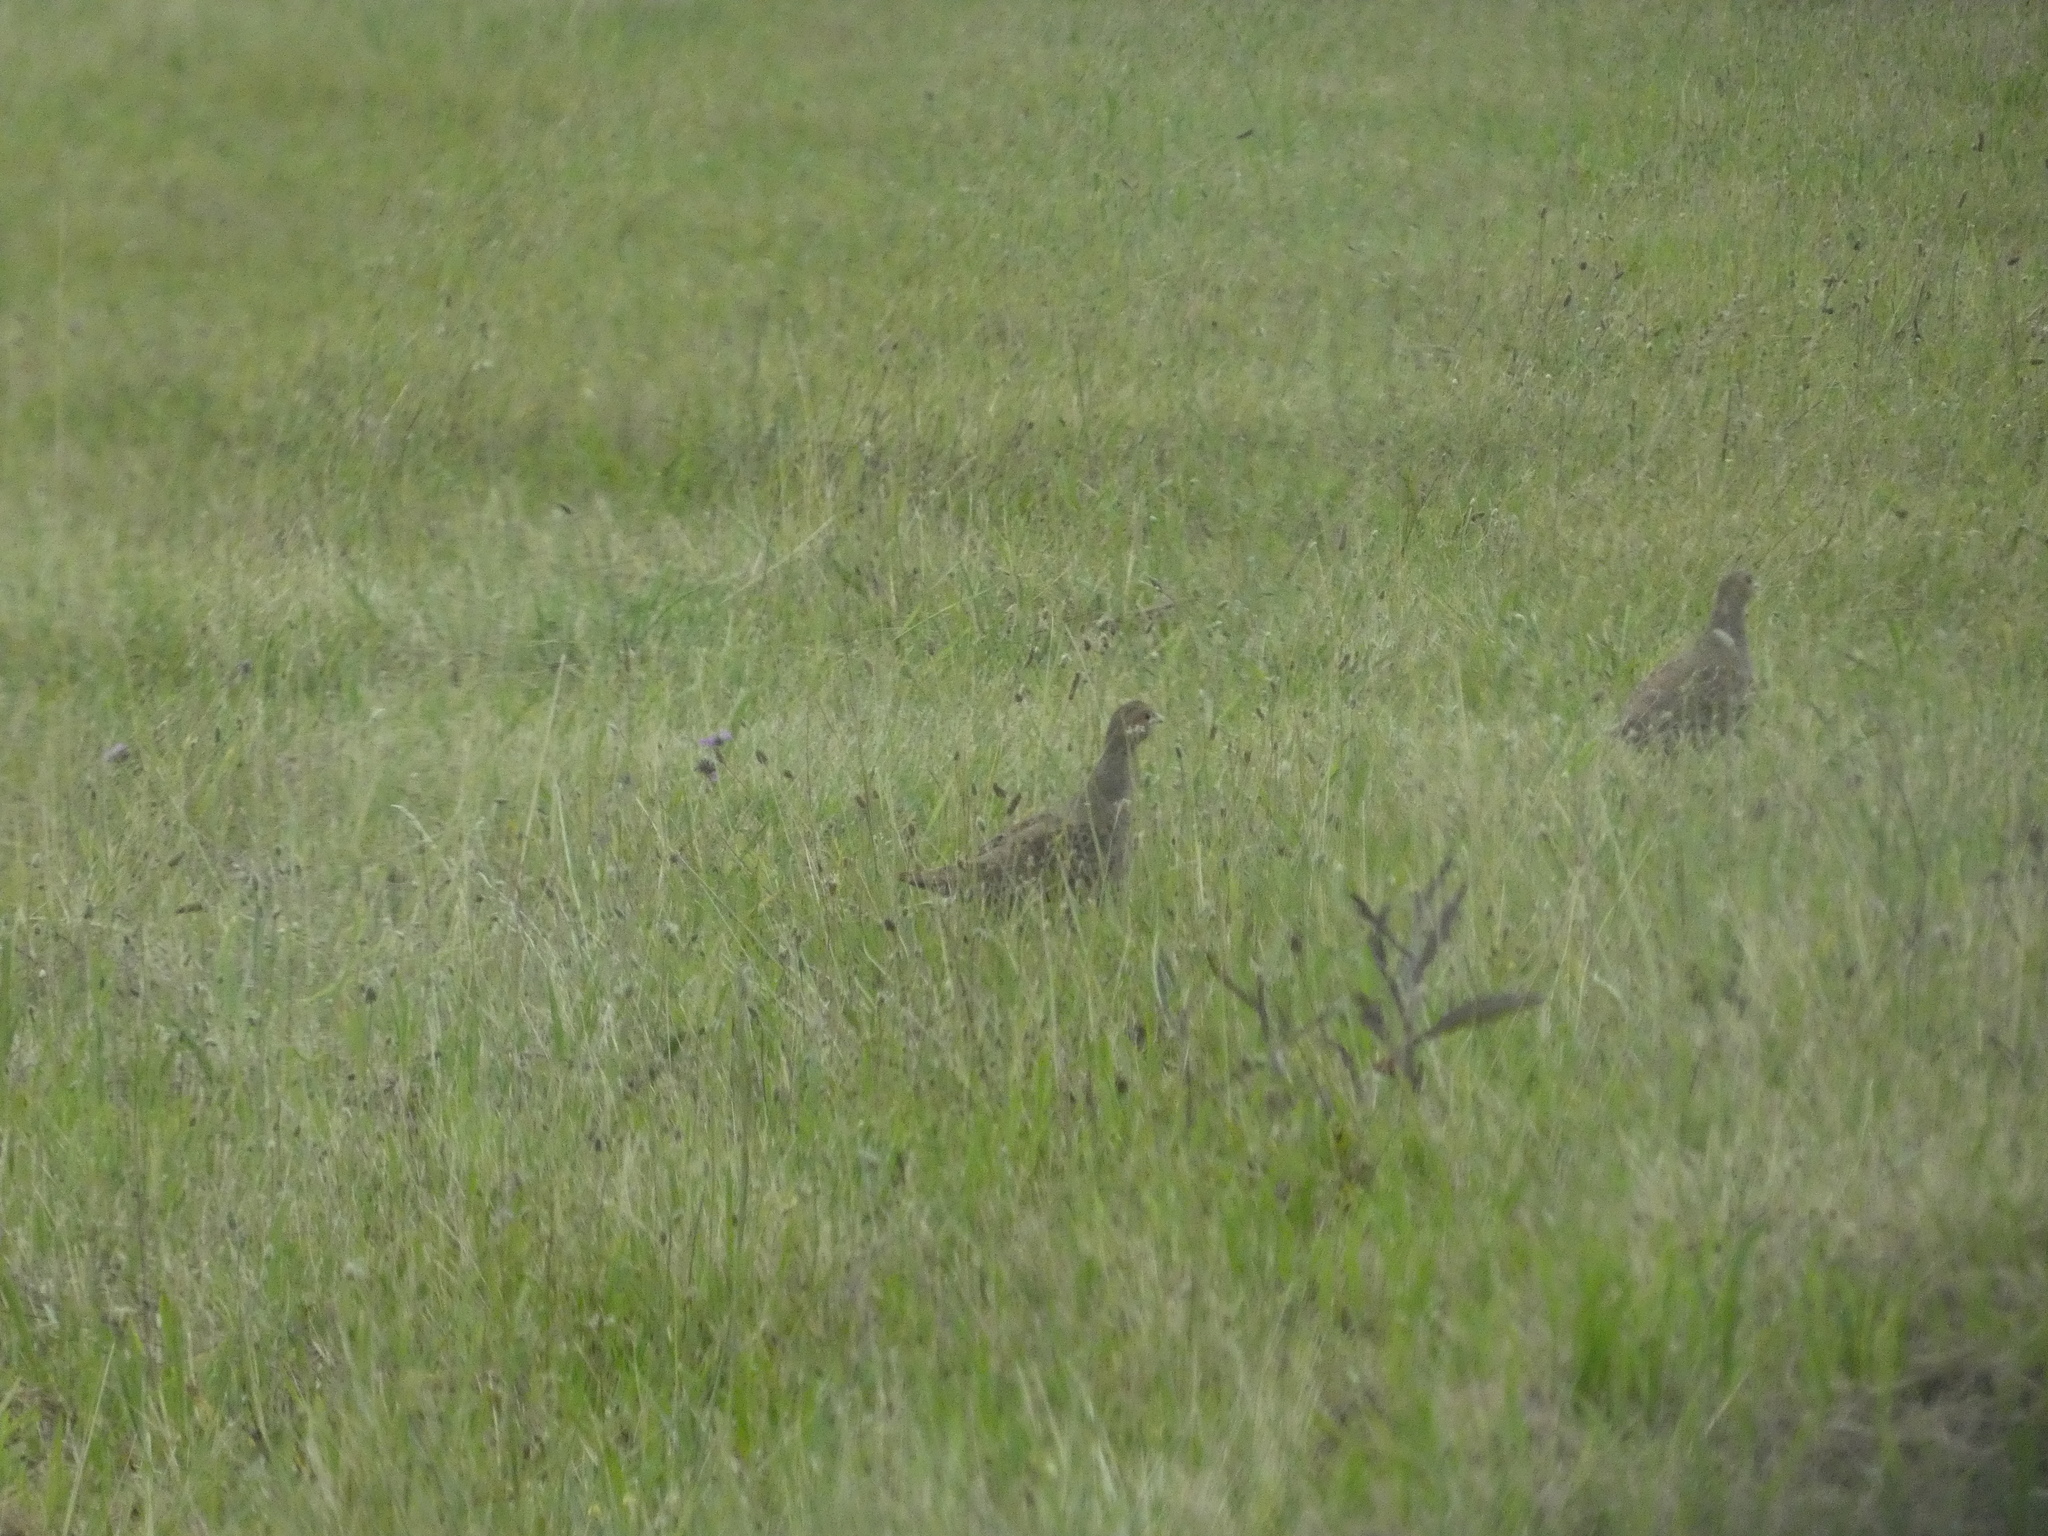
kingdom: Animalia
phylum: Chordata
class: Aves
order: Galliformes
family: Phasianidae
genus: Perdix
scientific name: Perdix perdix
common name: Grey partridge
